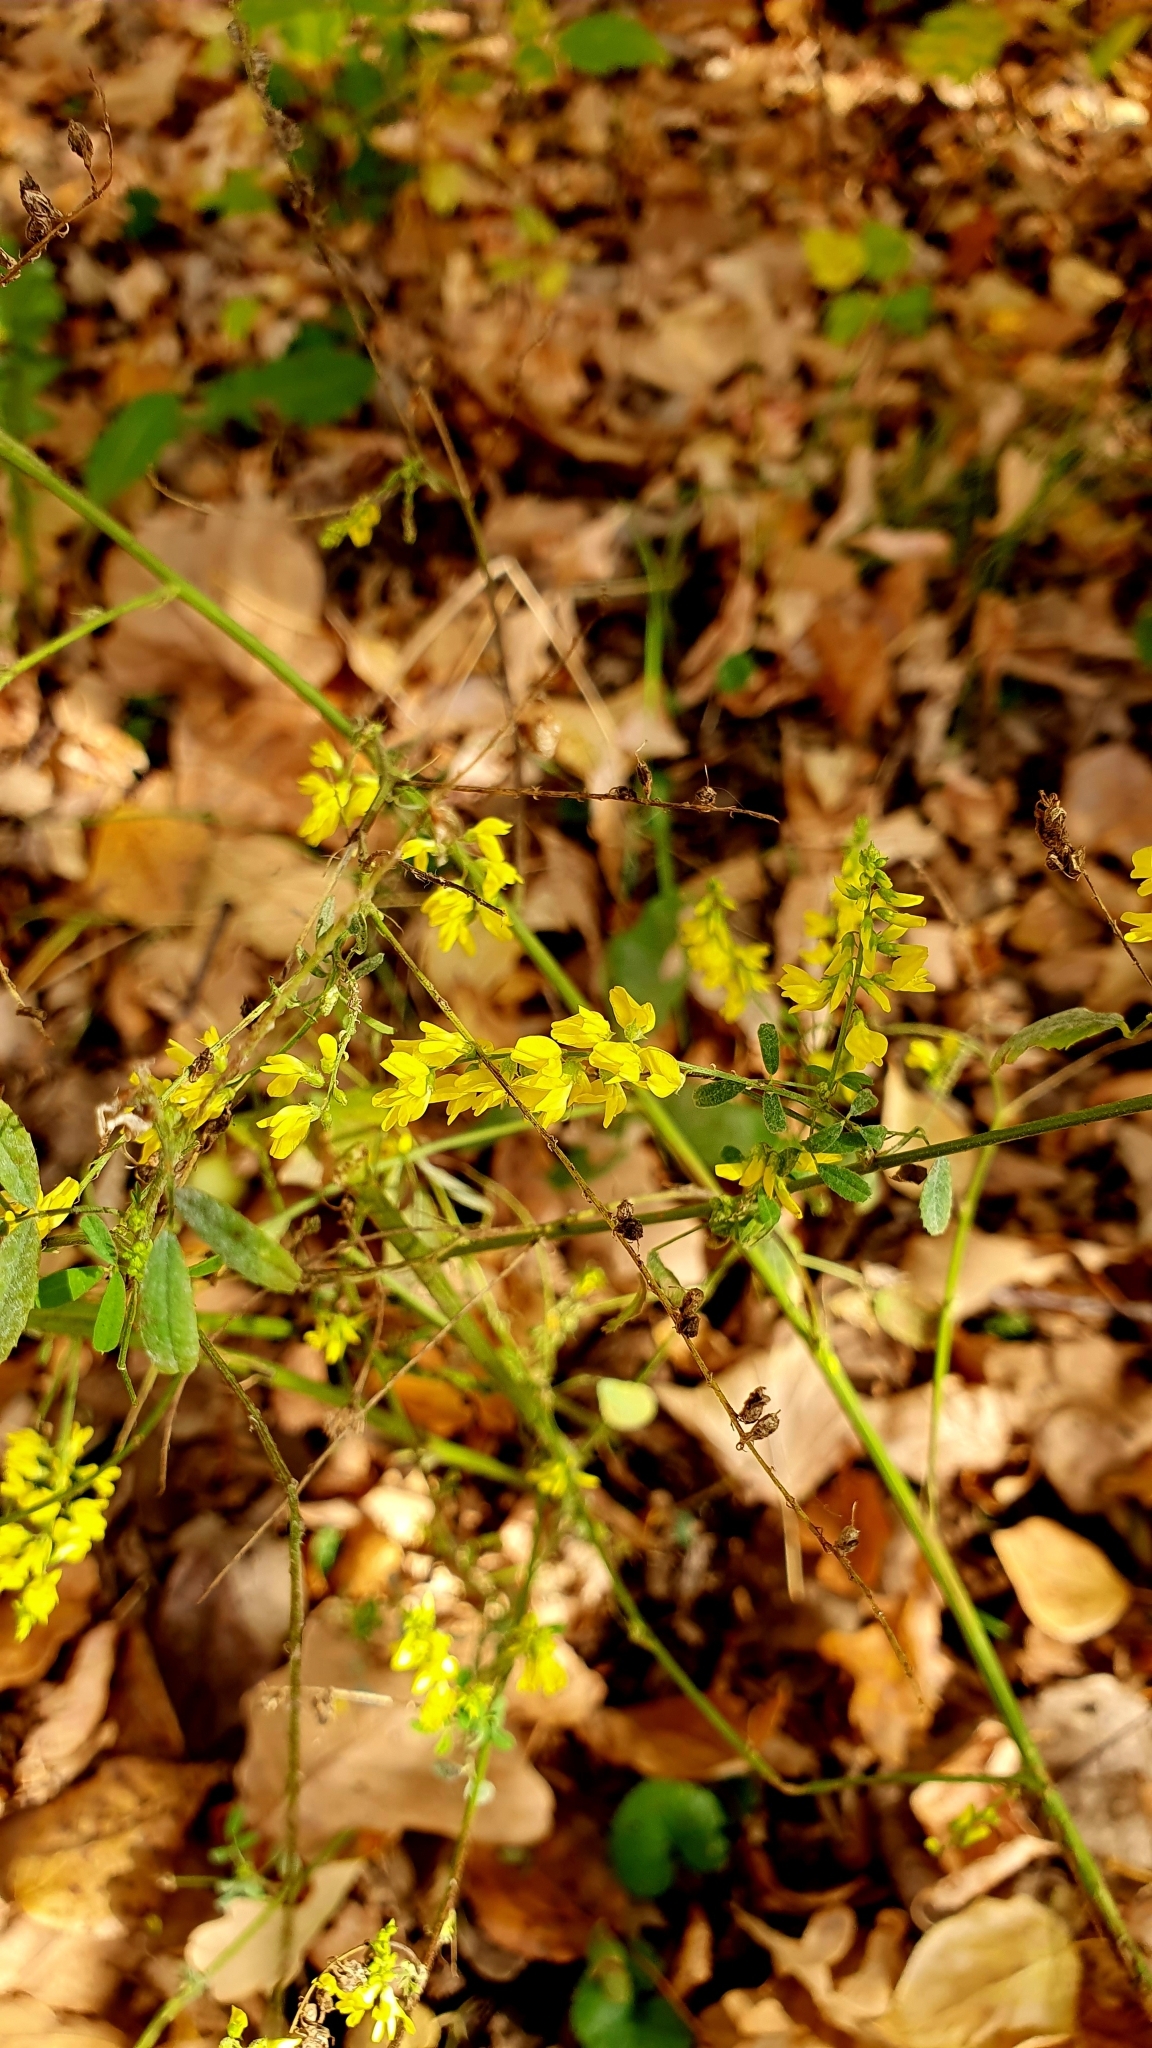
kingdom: Plantae
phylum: Tracheophyta
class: Magnoliopsida
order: Fabales
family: Fabaceae
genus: Melilotus
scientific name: Melilotus officinalis
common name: Sweetclover
